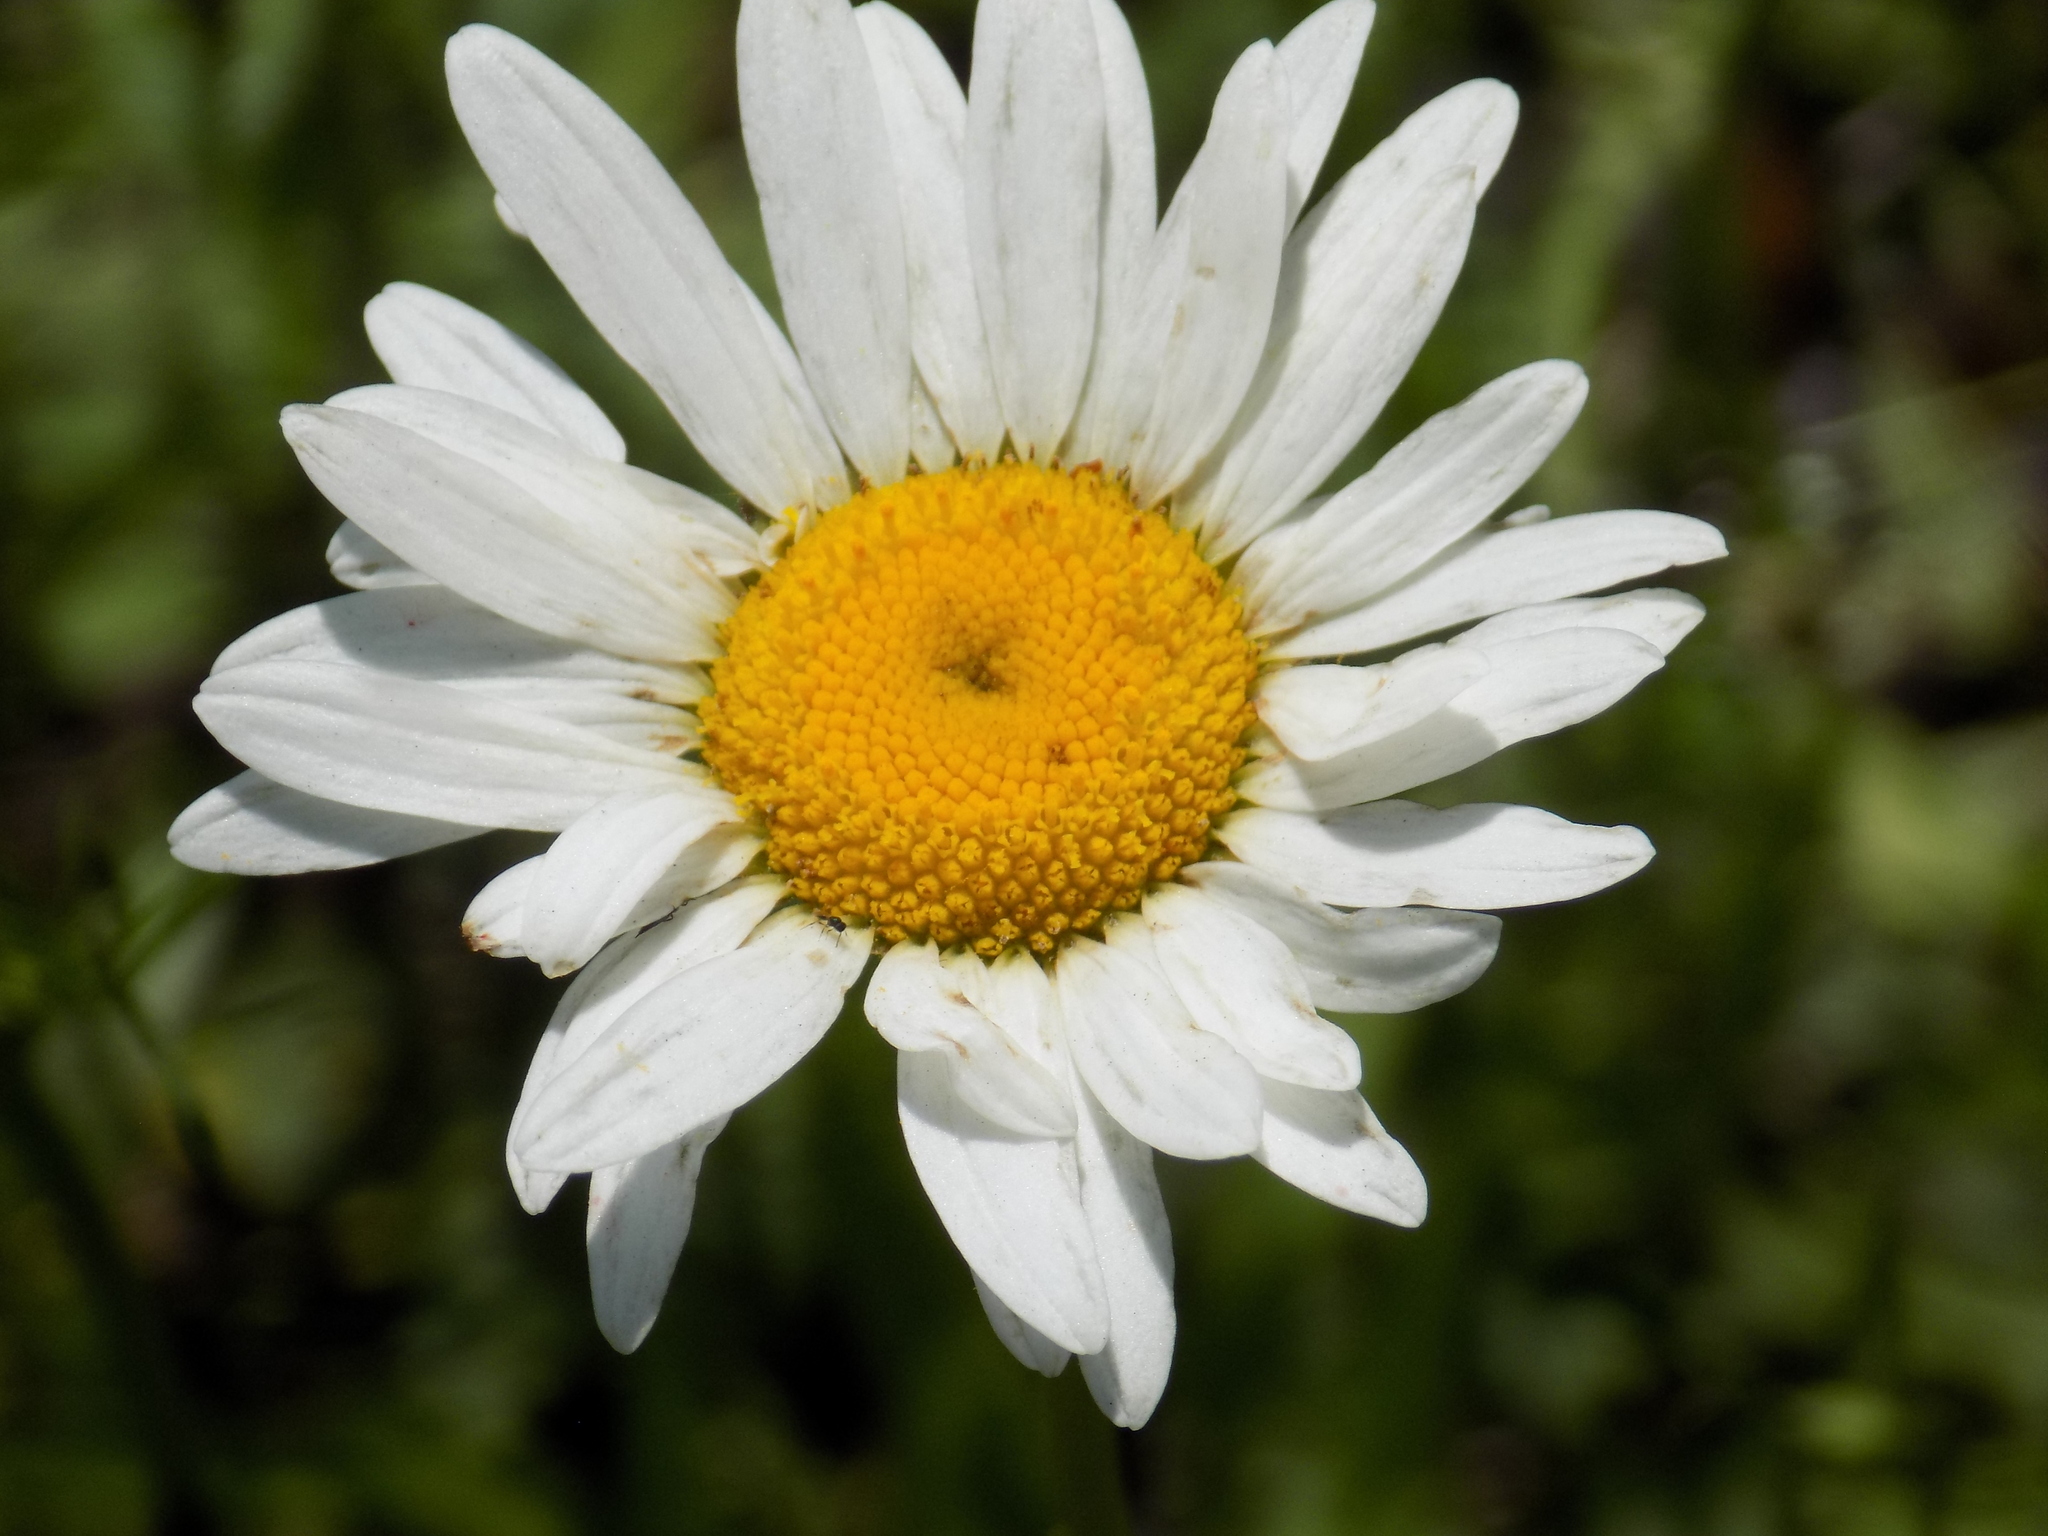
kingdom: Plantae
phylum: Tracheophyta
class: Magnoliopsida
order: Asterales
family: Asteraceae
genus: Leucanthemum
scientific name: Leucanthemum vulgare
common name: Oxeye daisy
